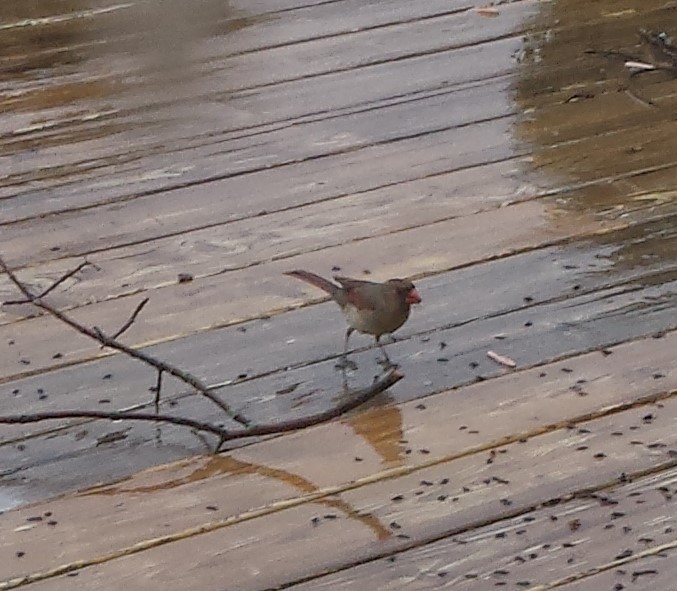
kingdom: Animalia
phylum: Chordata
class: Aves
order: Passeriformes
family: Cardinalidae
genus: Cardinalis
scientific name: Cardinalis cardinalis
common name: Northern cardinal
